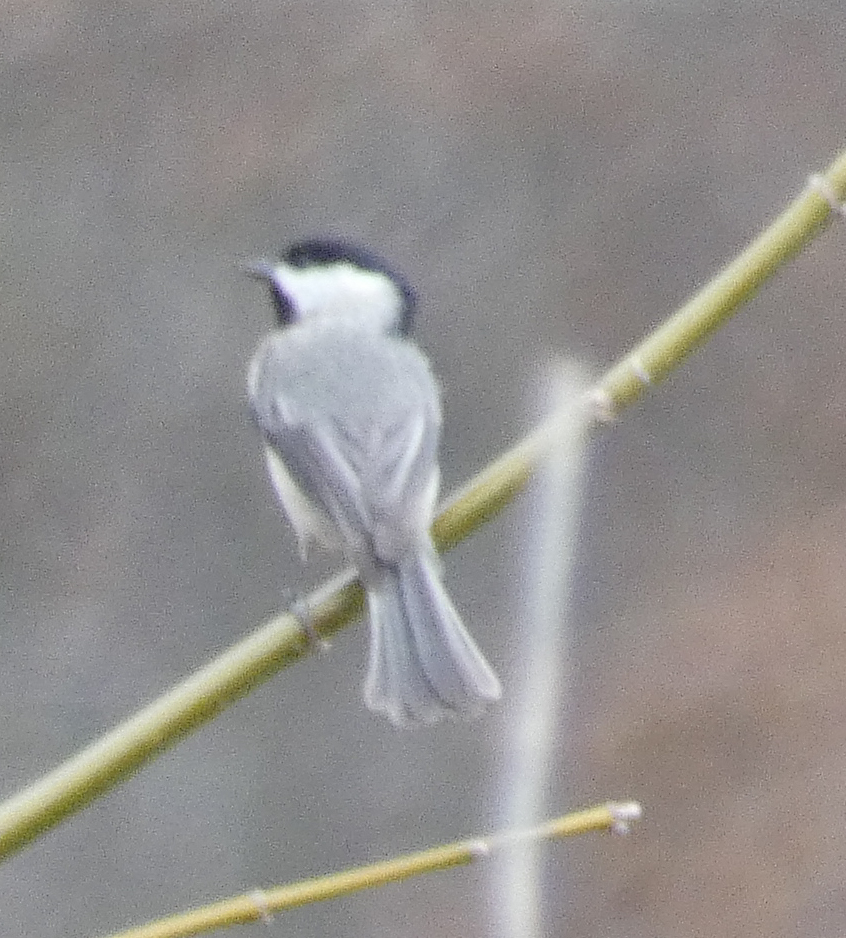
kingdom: Animalia
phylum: Chordata
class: Aves
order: Passeriformes
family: Paridae
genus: Poecile
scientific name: Poecile carolinensis
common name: Carolina chickadee
